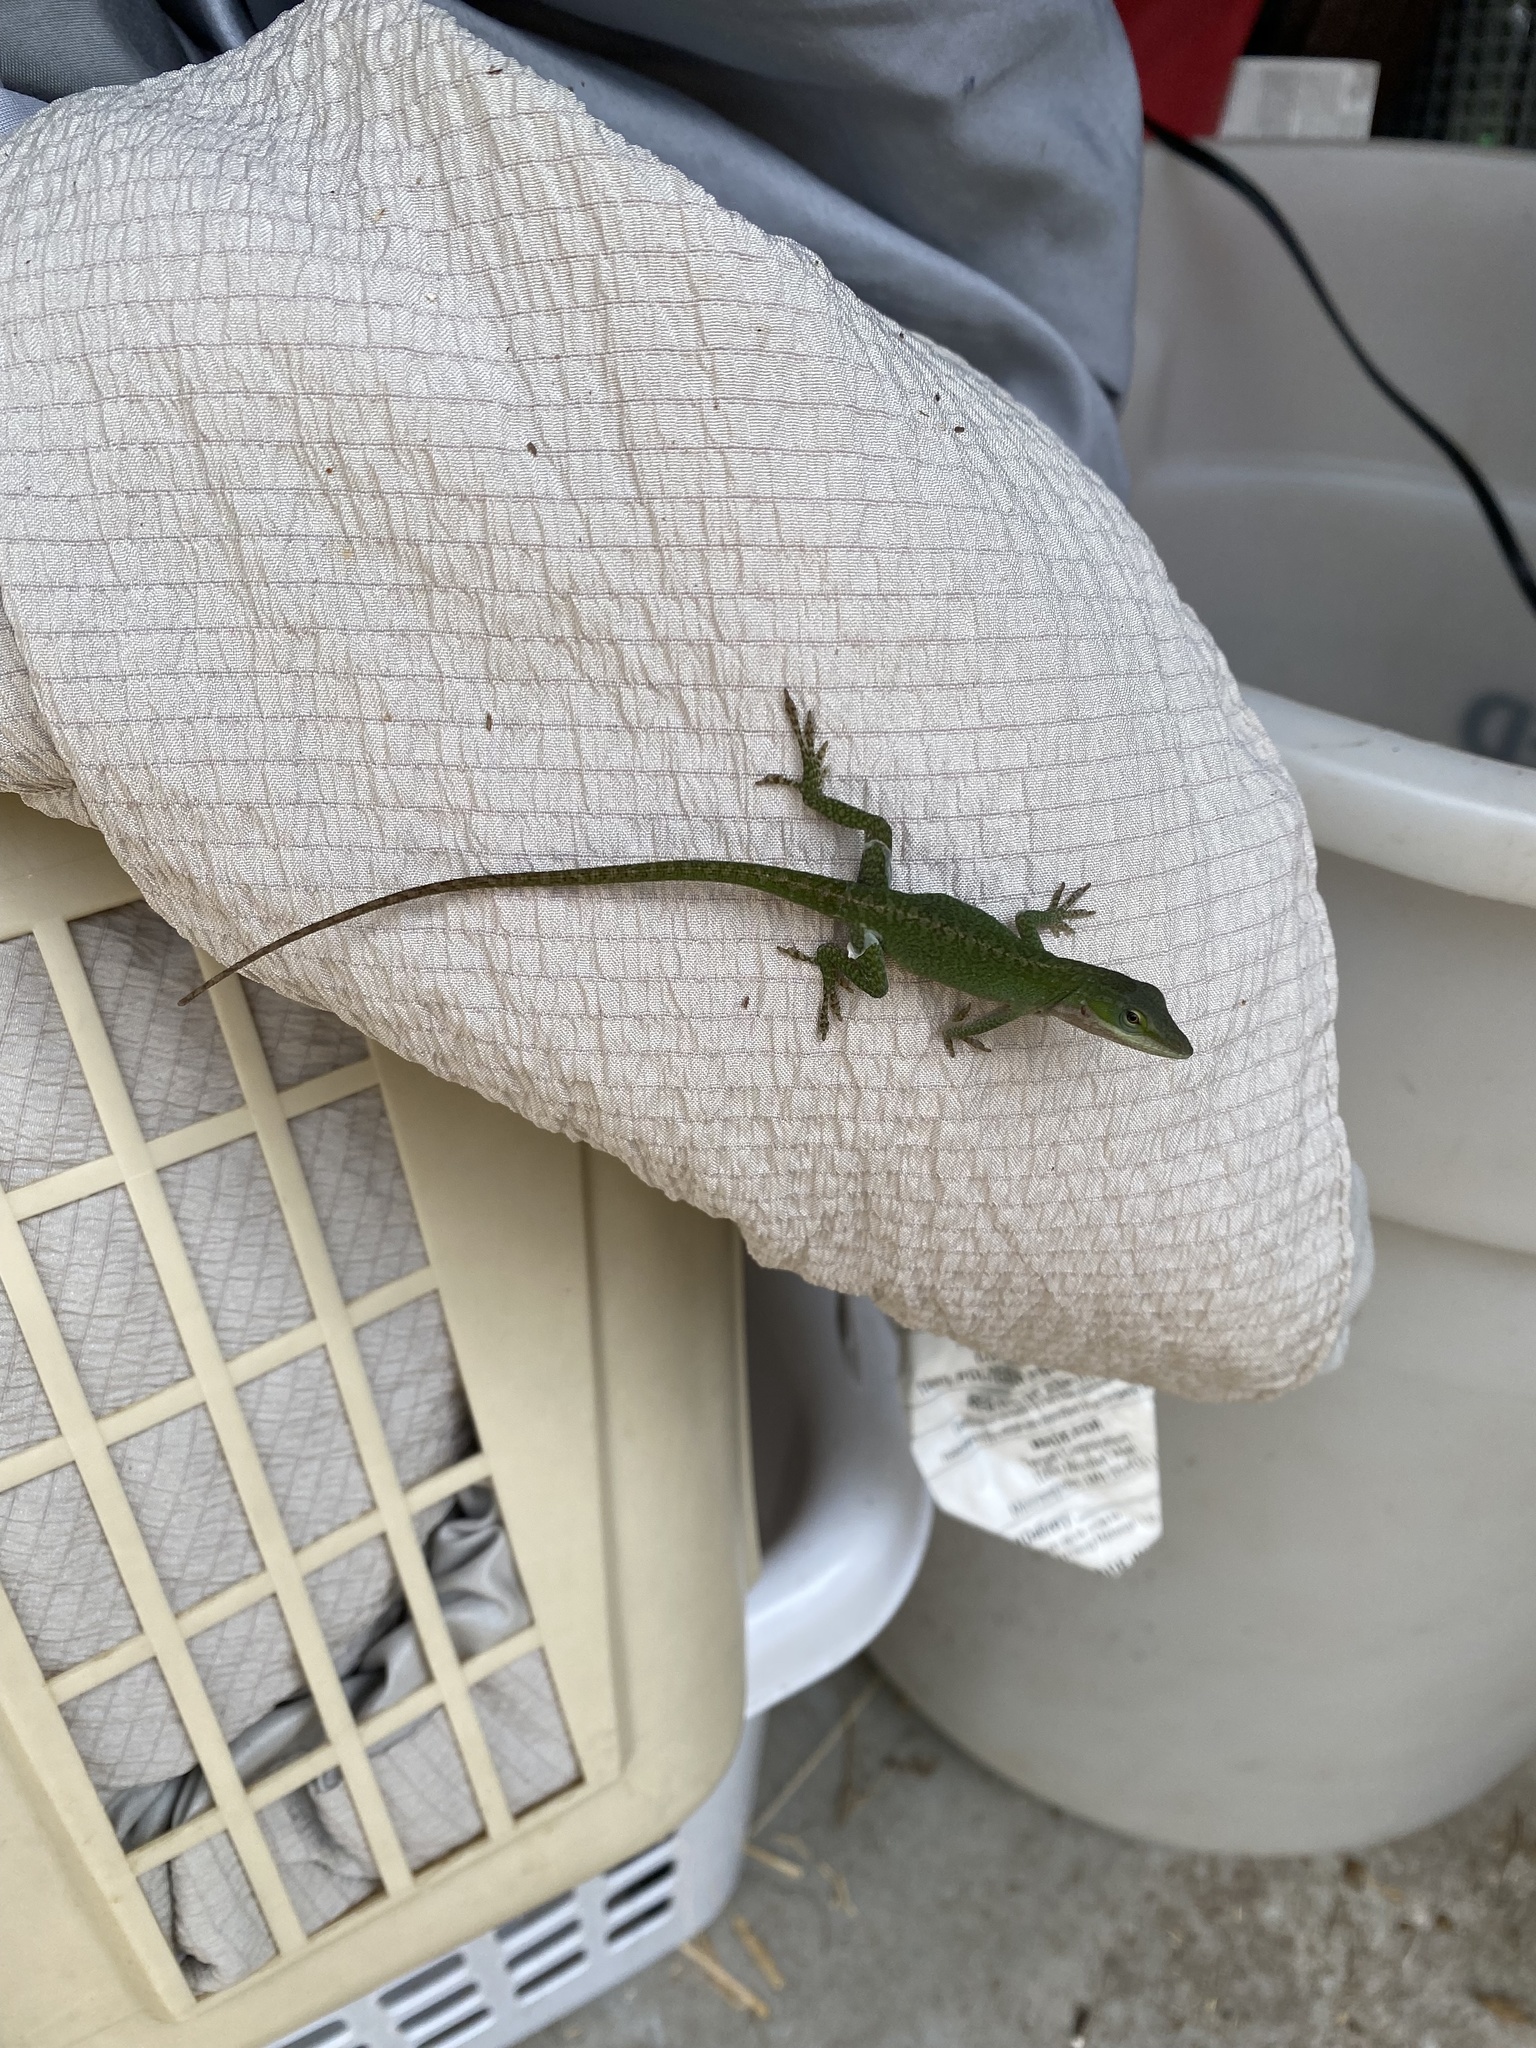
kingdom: Animalia
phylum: Chordata
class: Squamata
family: Dactyloidae
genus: Anolis
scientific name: Anolis carolinensis
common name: Green anole
